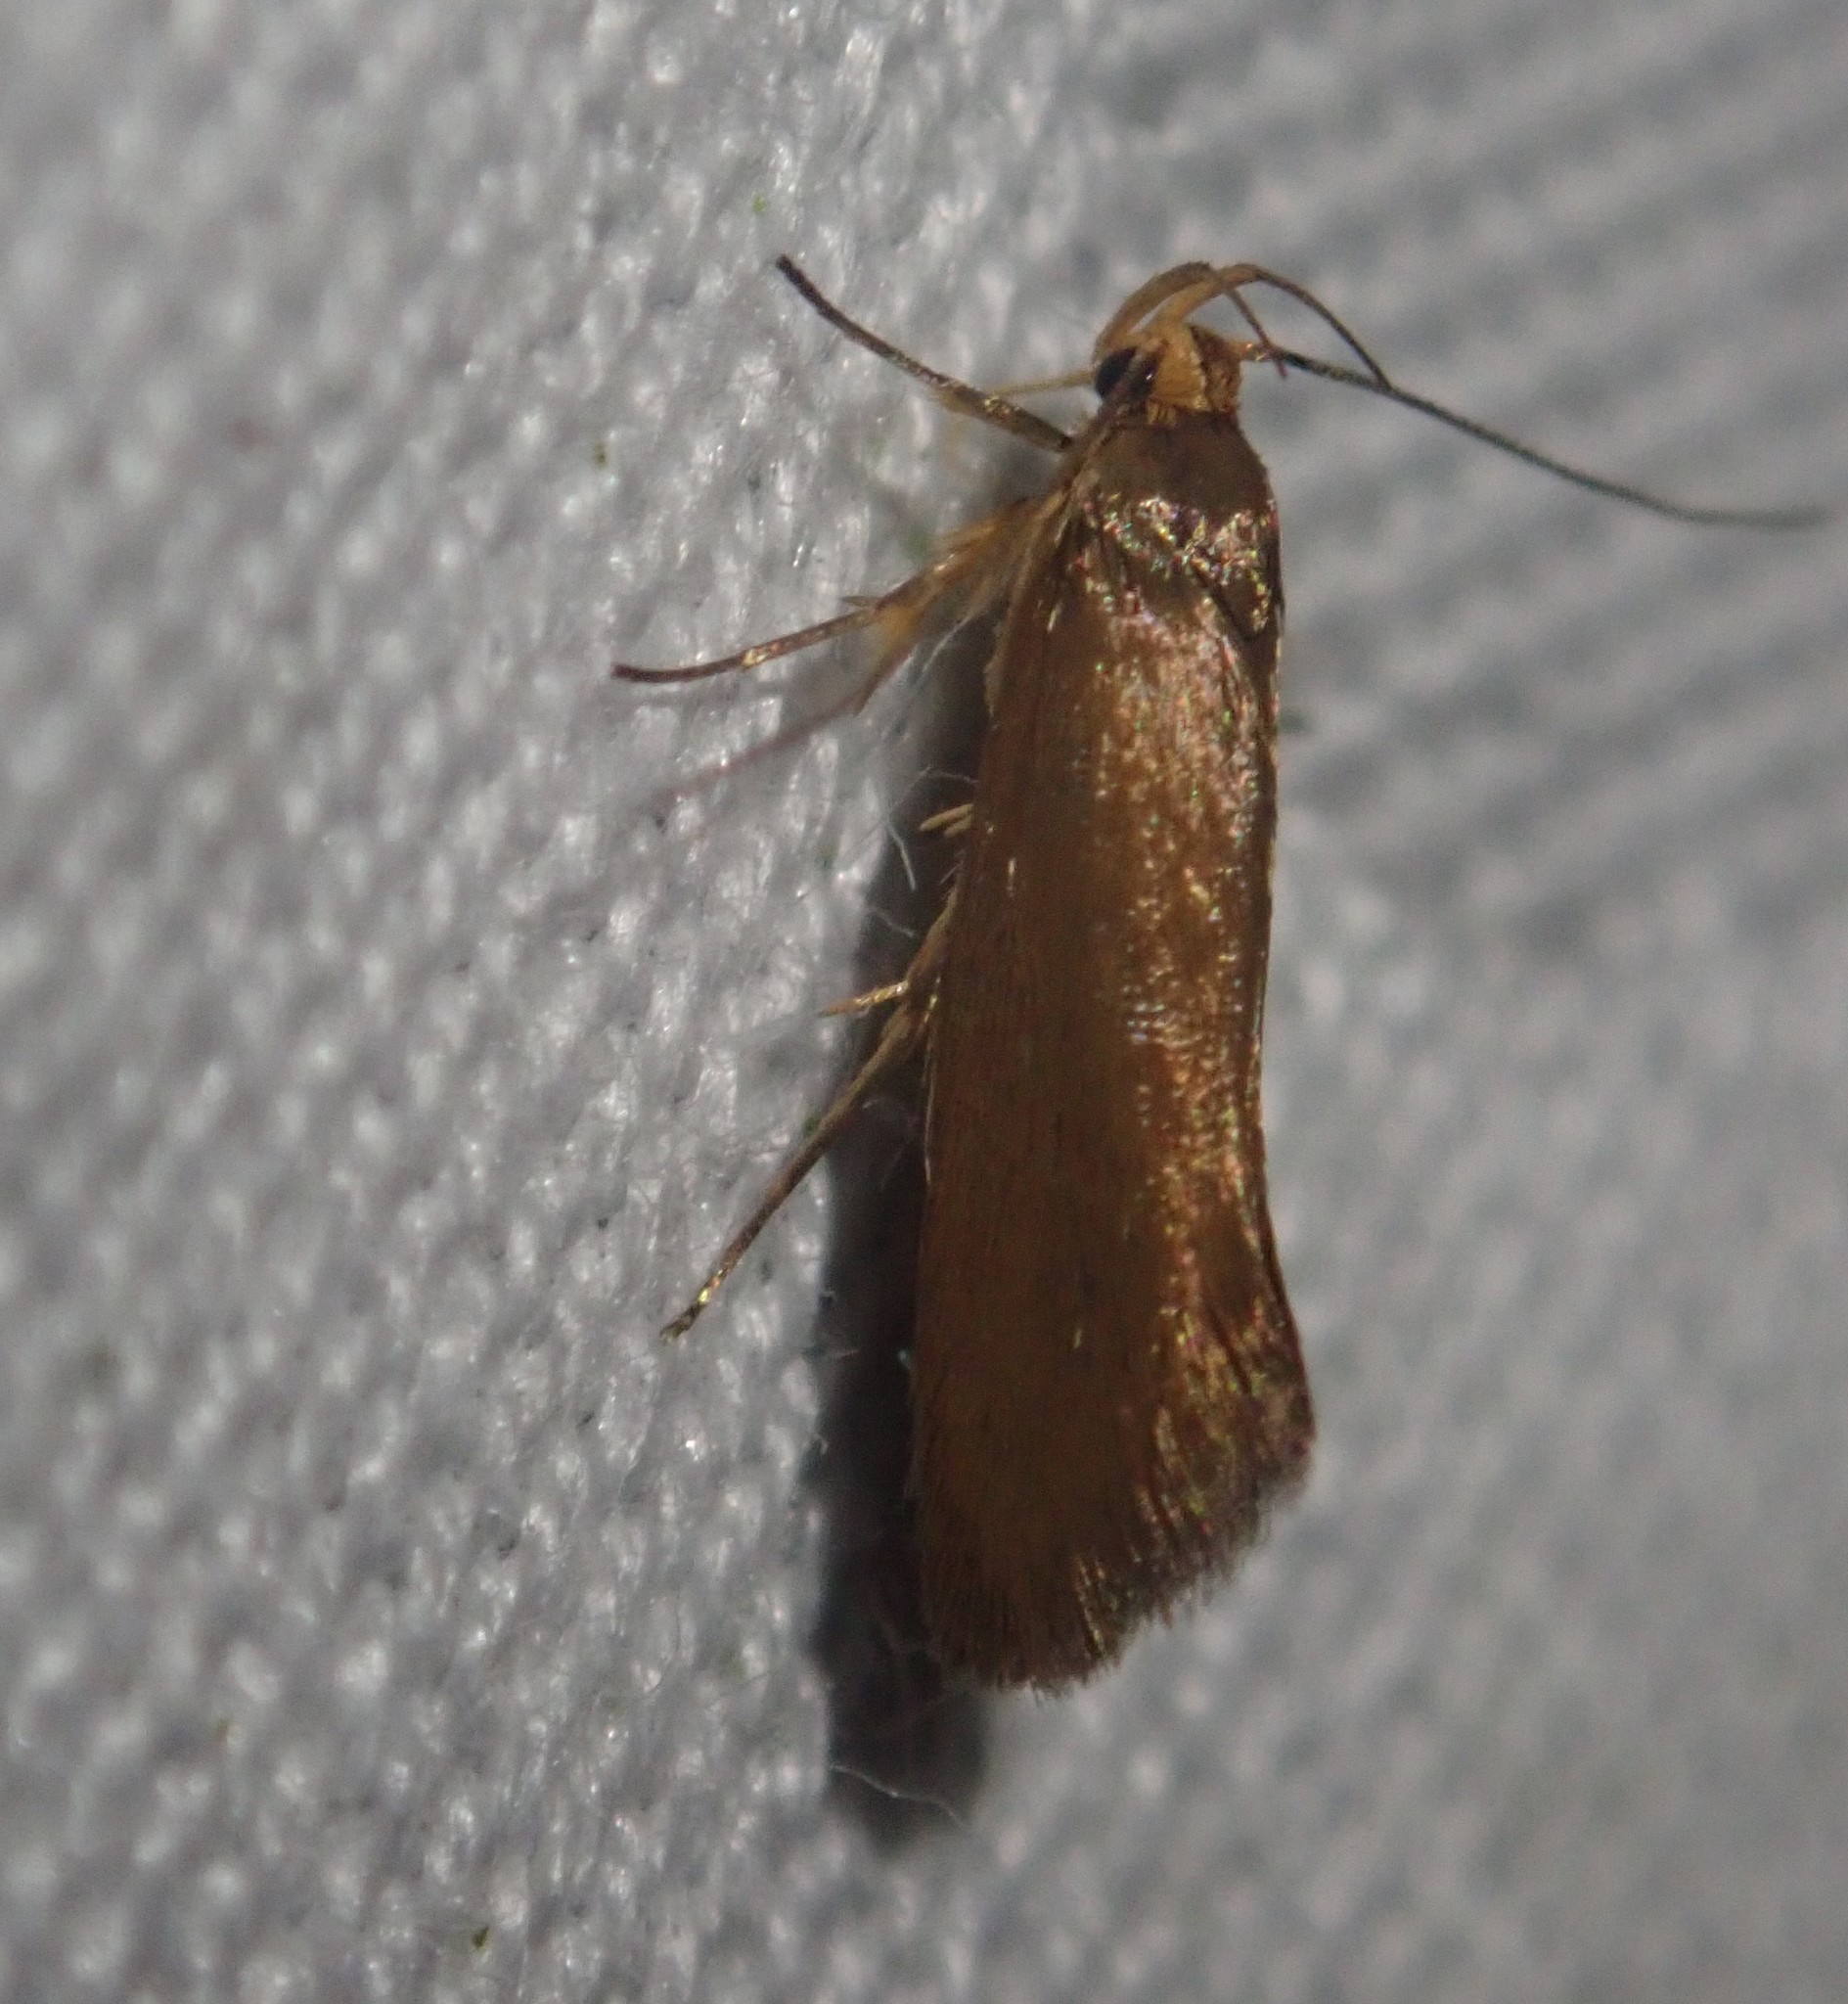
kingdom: Animalia
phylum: Arthropoda
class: Insecta
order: Lepidoptera
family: Oecophoridae
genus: Borkhausenia
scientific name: Borkhausenia Crassa unitella
